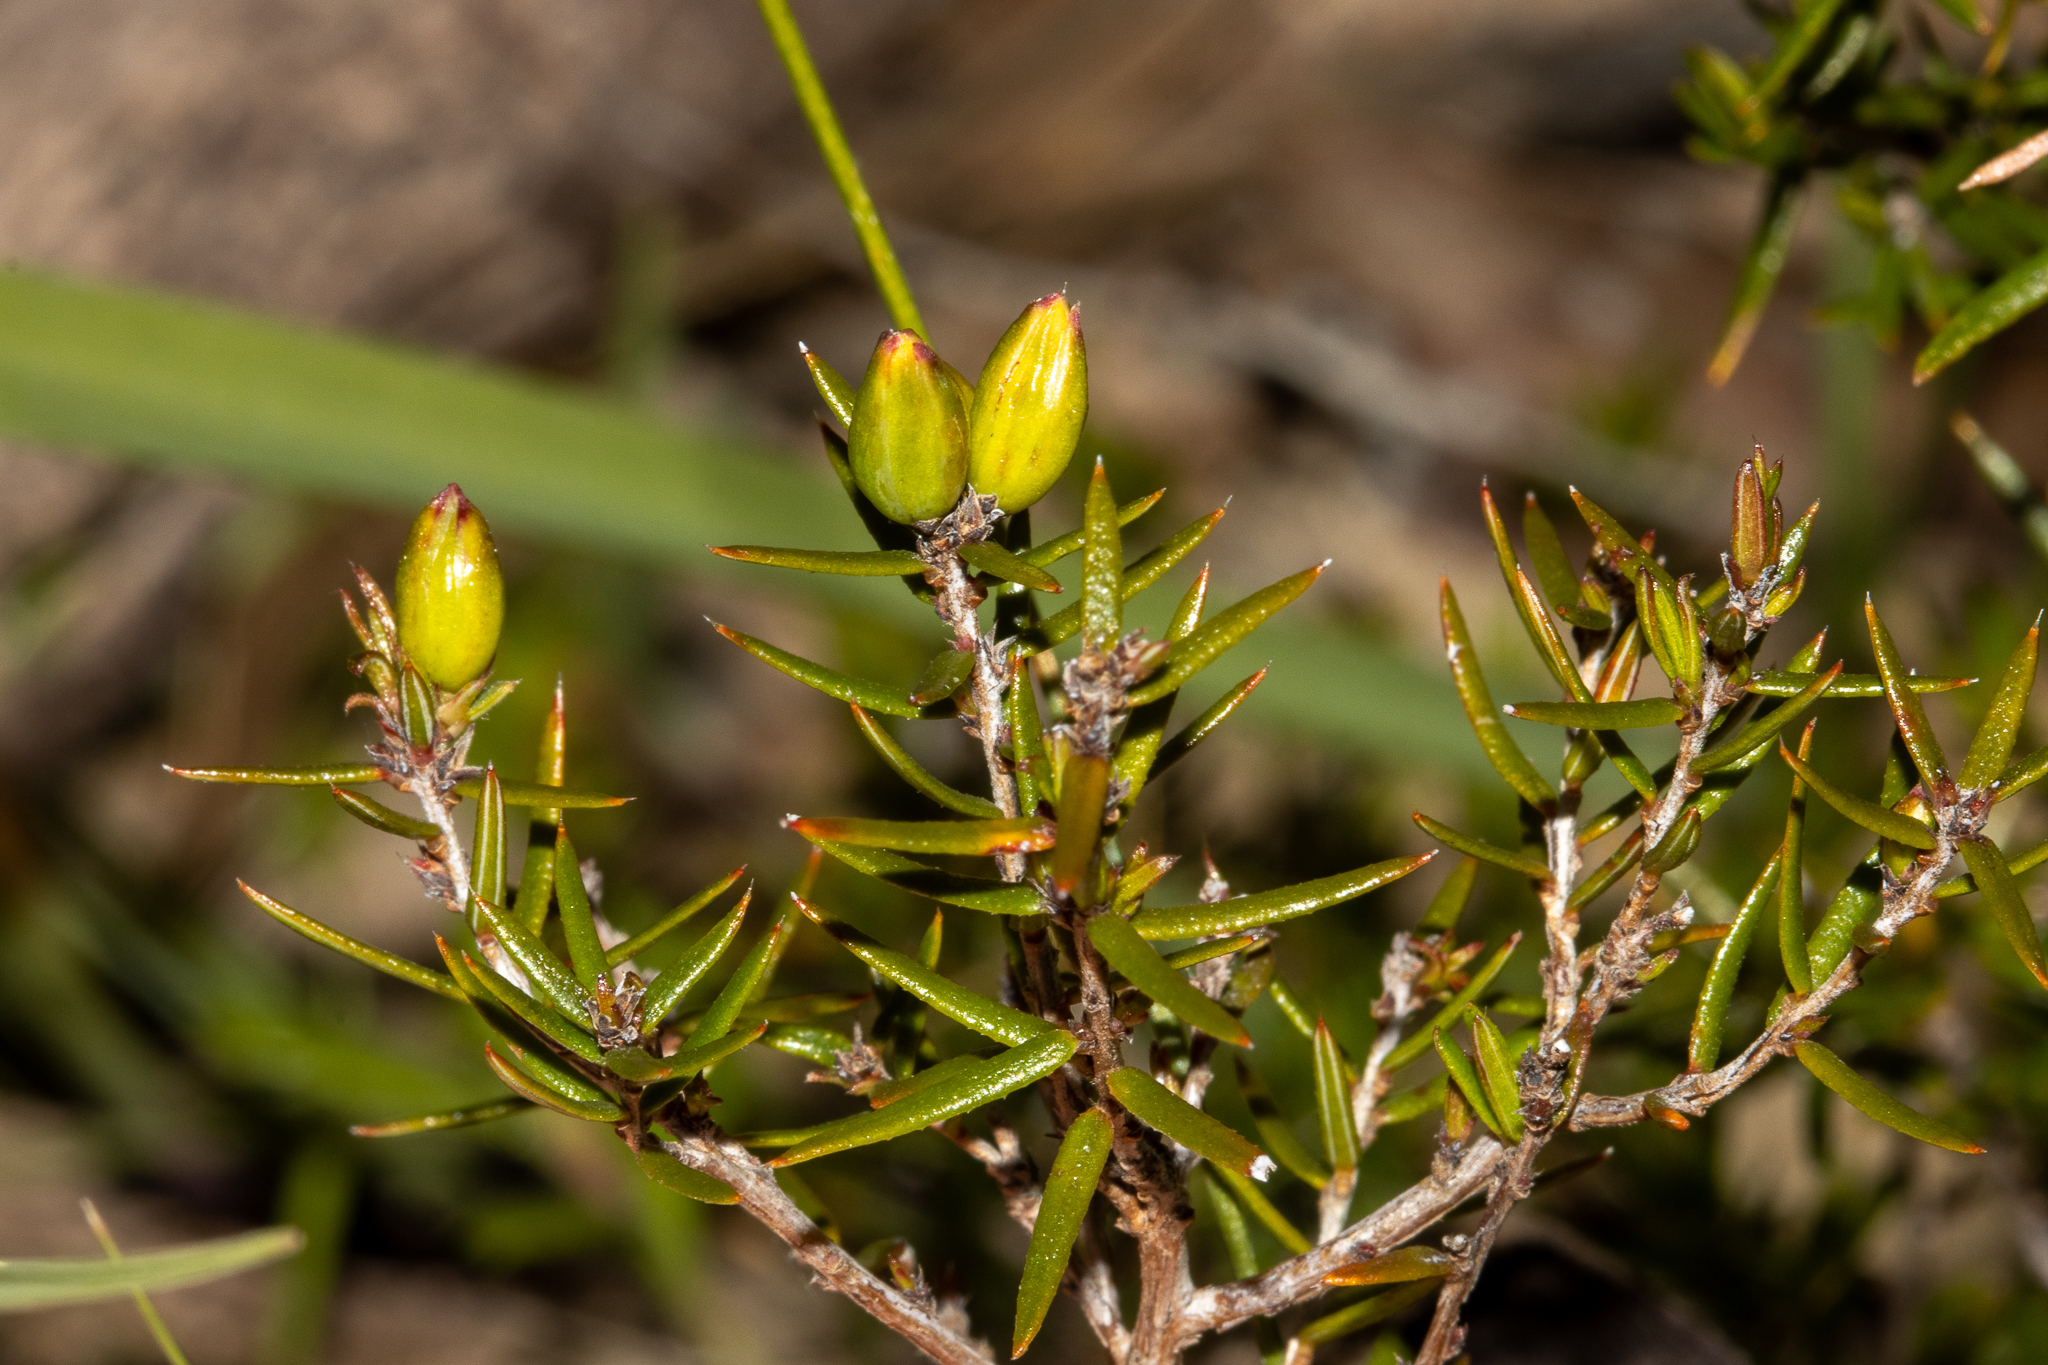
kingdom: Plantae
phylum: Tracheophyta
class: Magnoliopsida
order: Dilleniales
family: Dilleniaceae
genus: Hibbertia
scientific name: Hibbertia exutiacies
